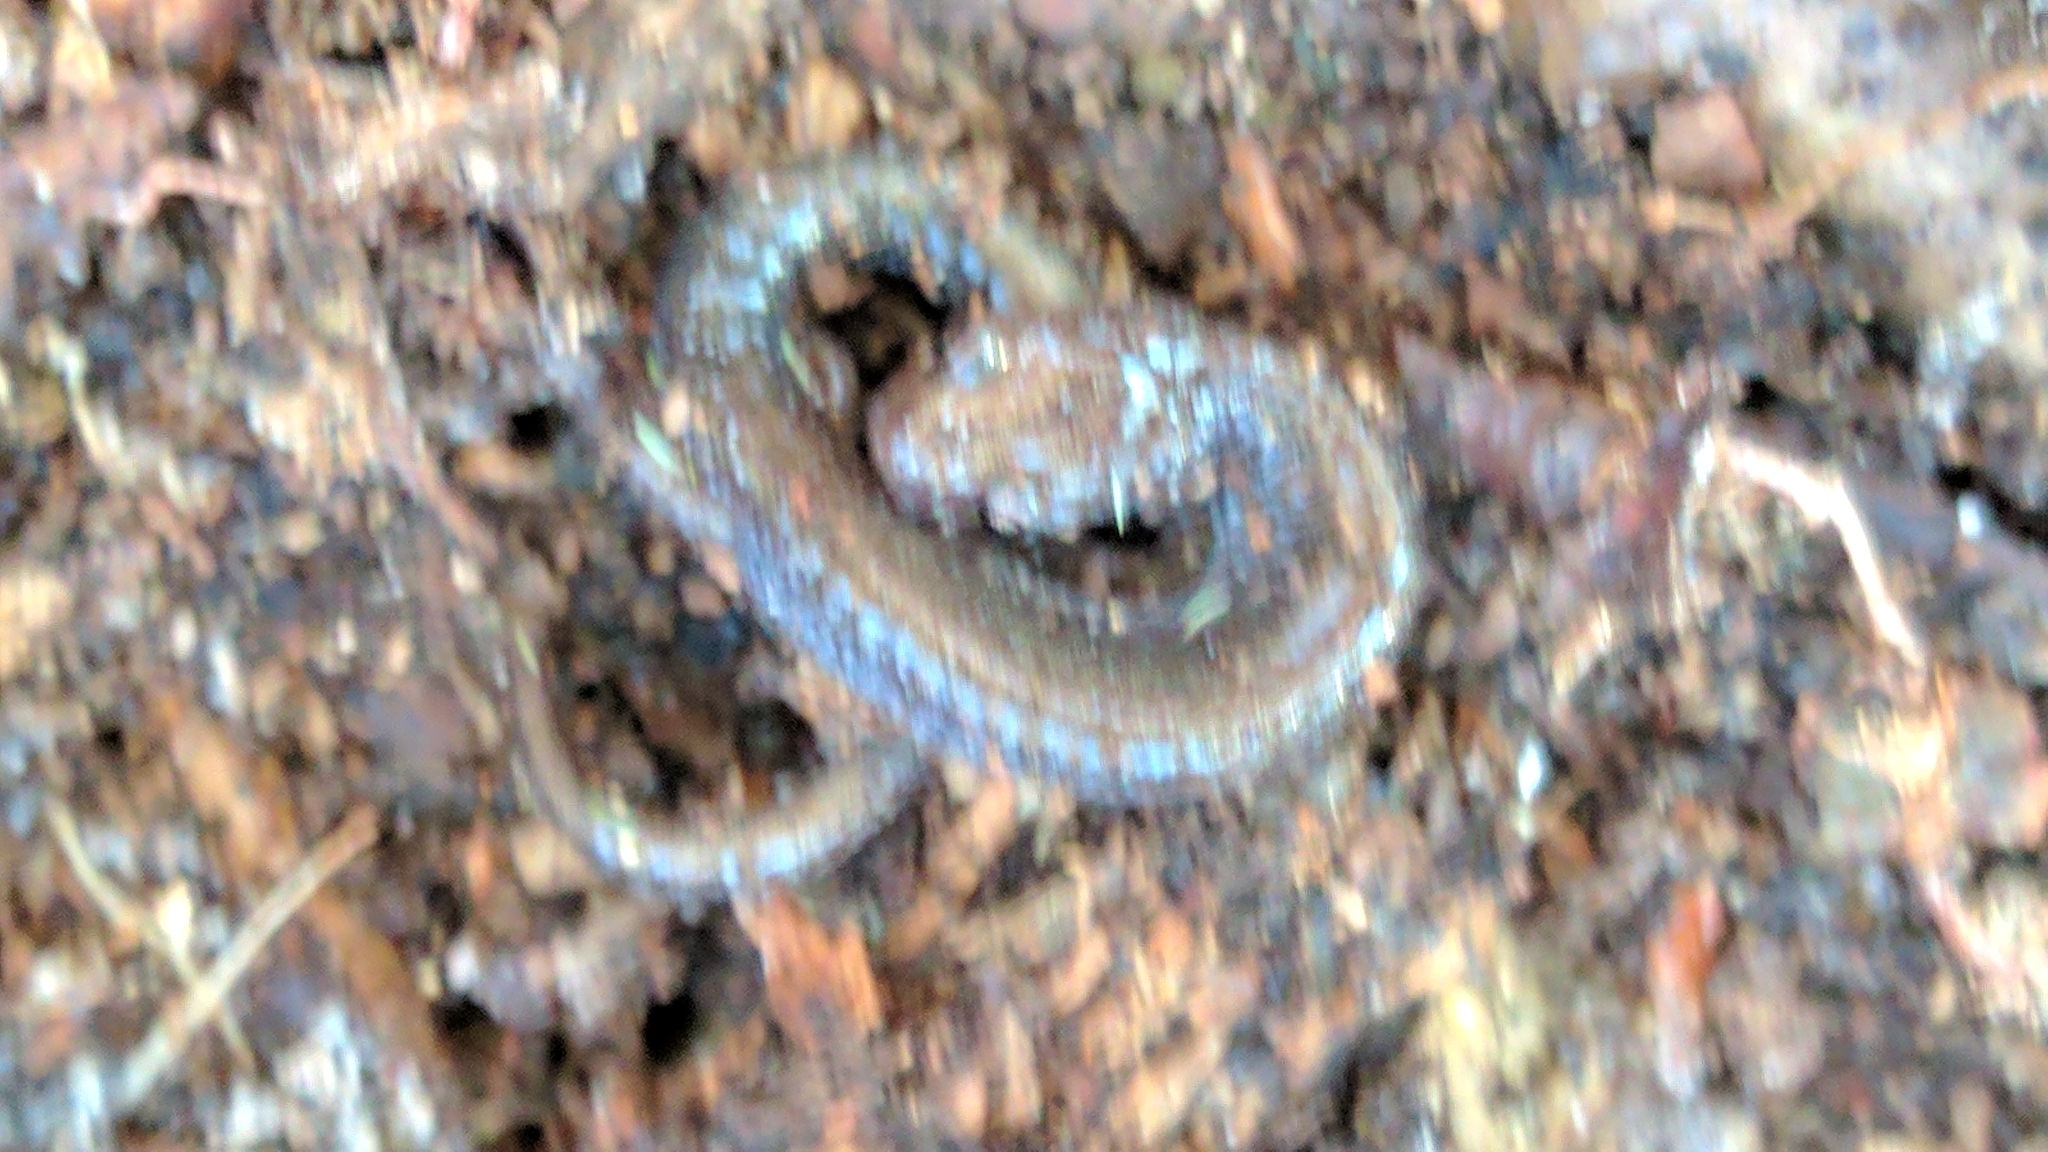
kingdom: Animalia
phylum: Chordata
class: Amphibia
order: Caudata
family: Plethodontidae
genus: Plethodon
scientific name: Plethodon cinereus
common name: Redback salamander
